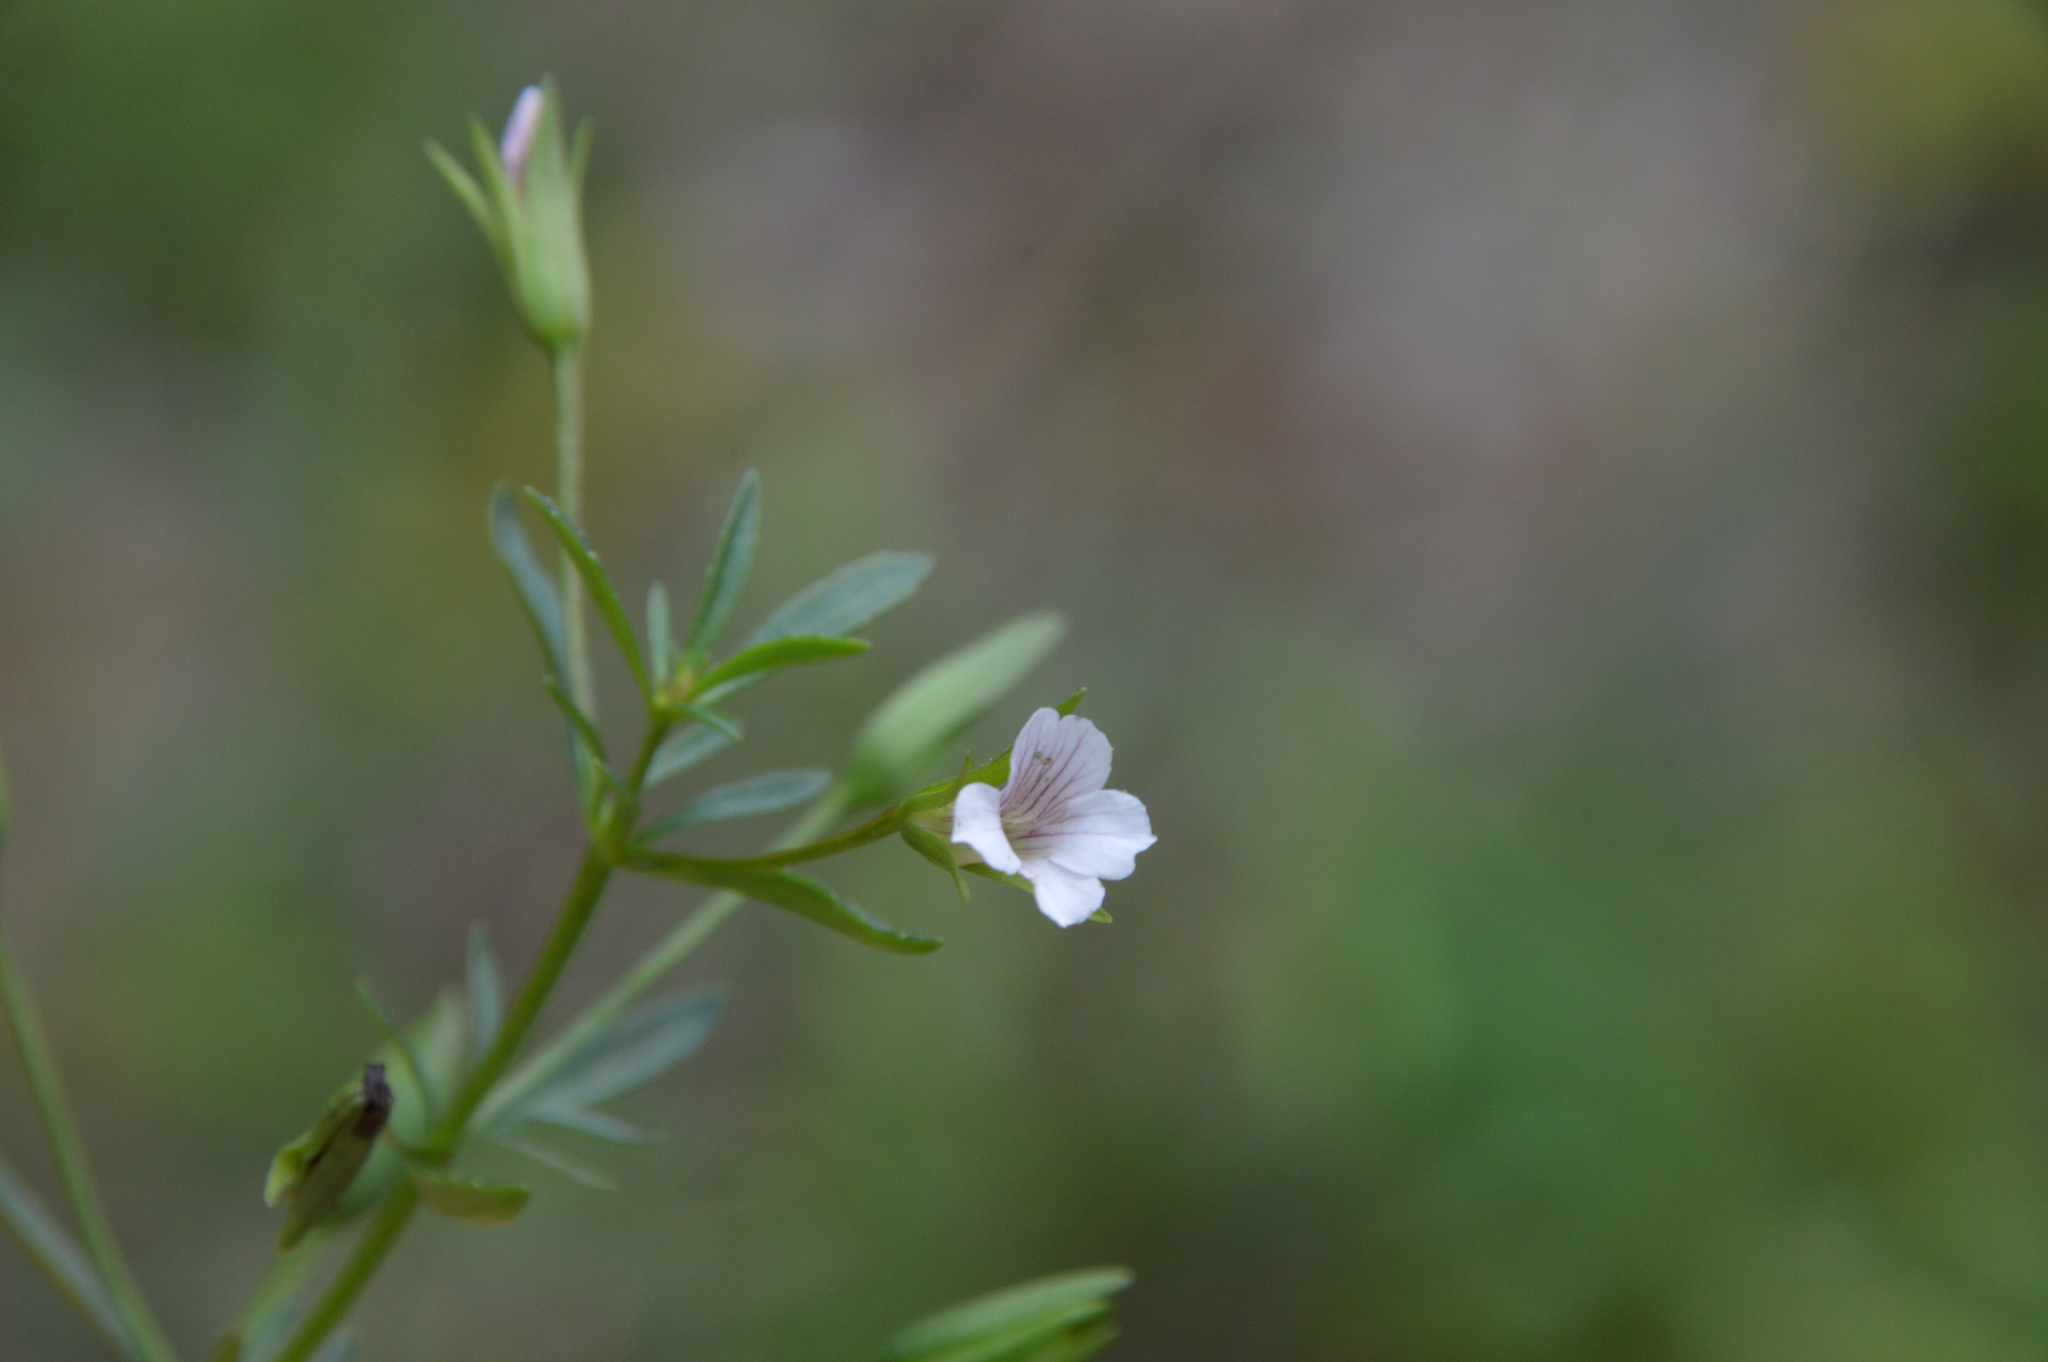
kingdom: Plantae
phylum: Tracheophyta
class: Magnoliopsida
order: Lamiales
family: Plantaginaceae
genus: Mecardonia
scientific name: Mecardonia acuminata
